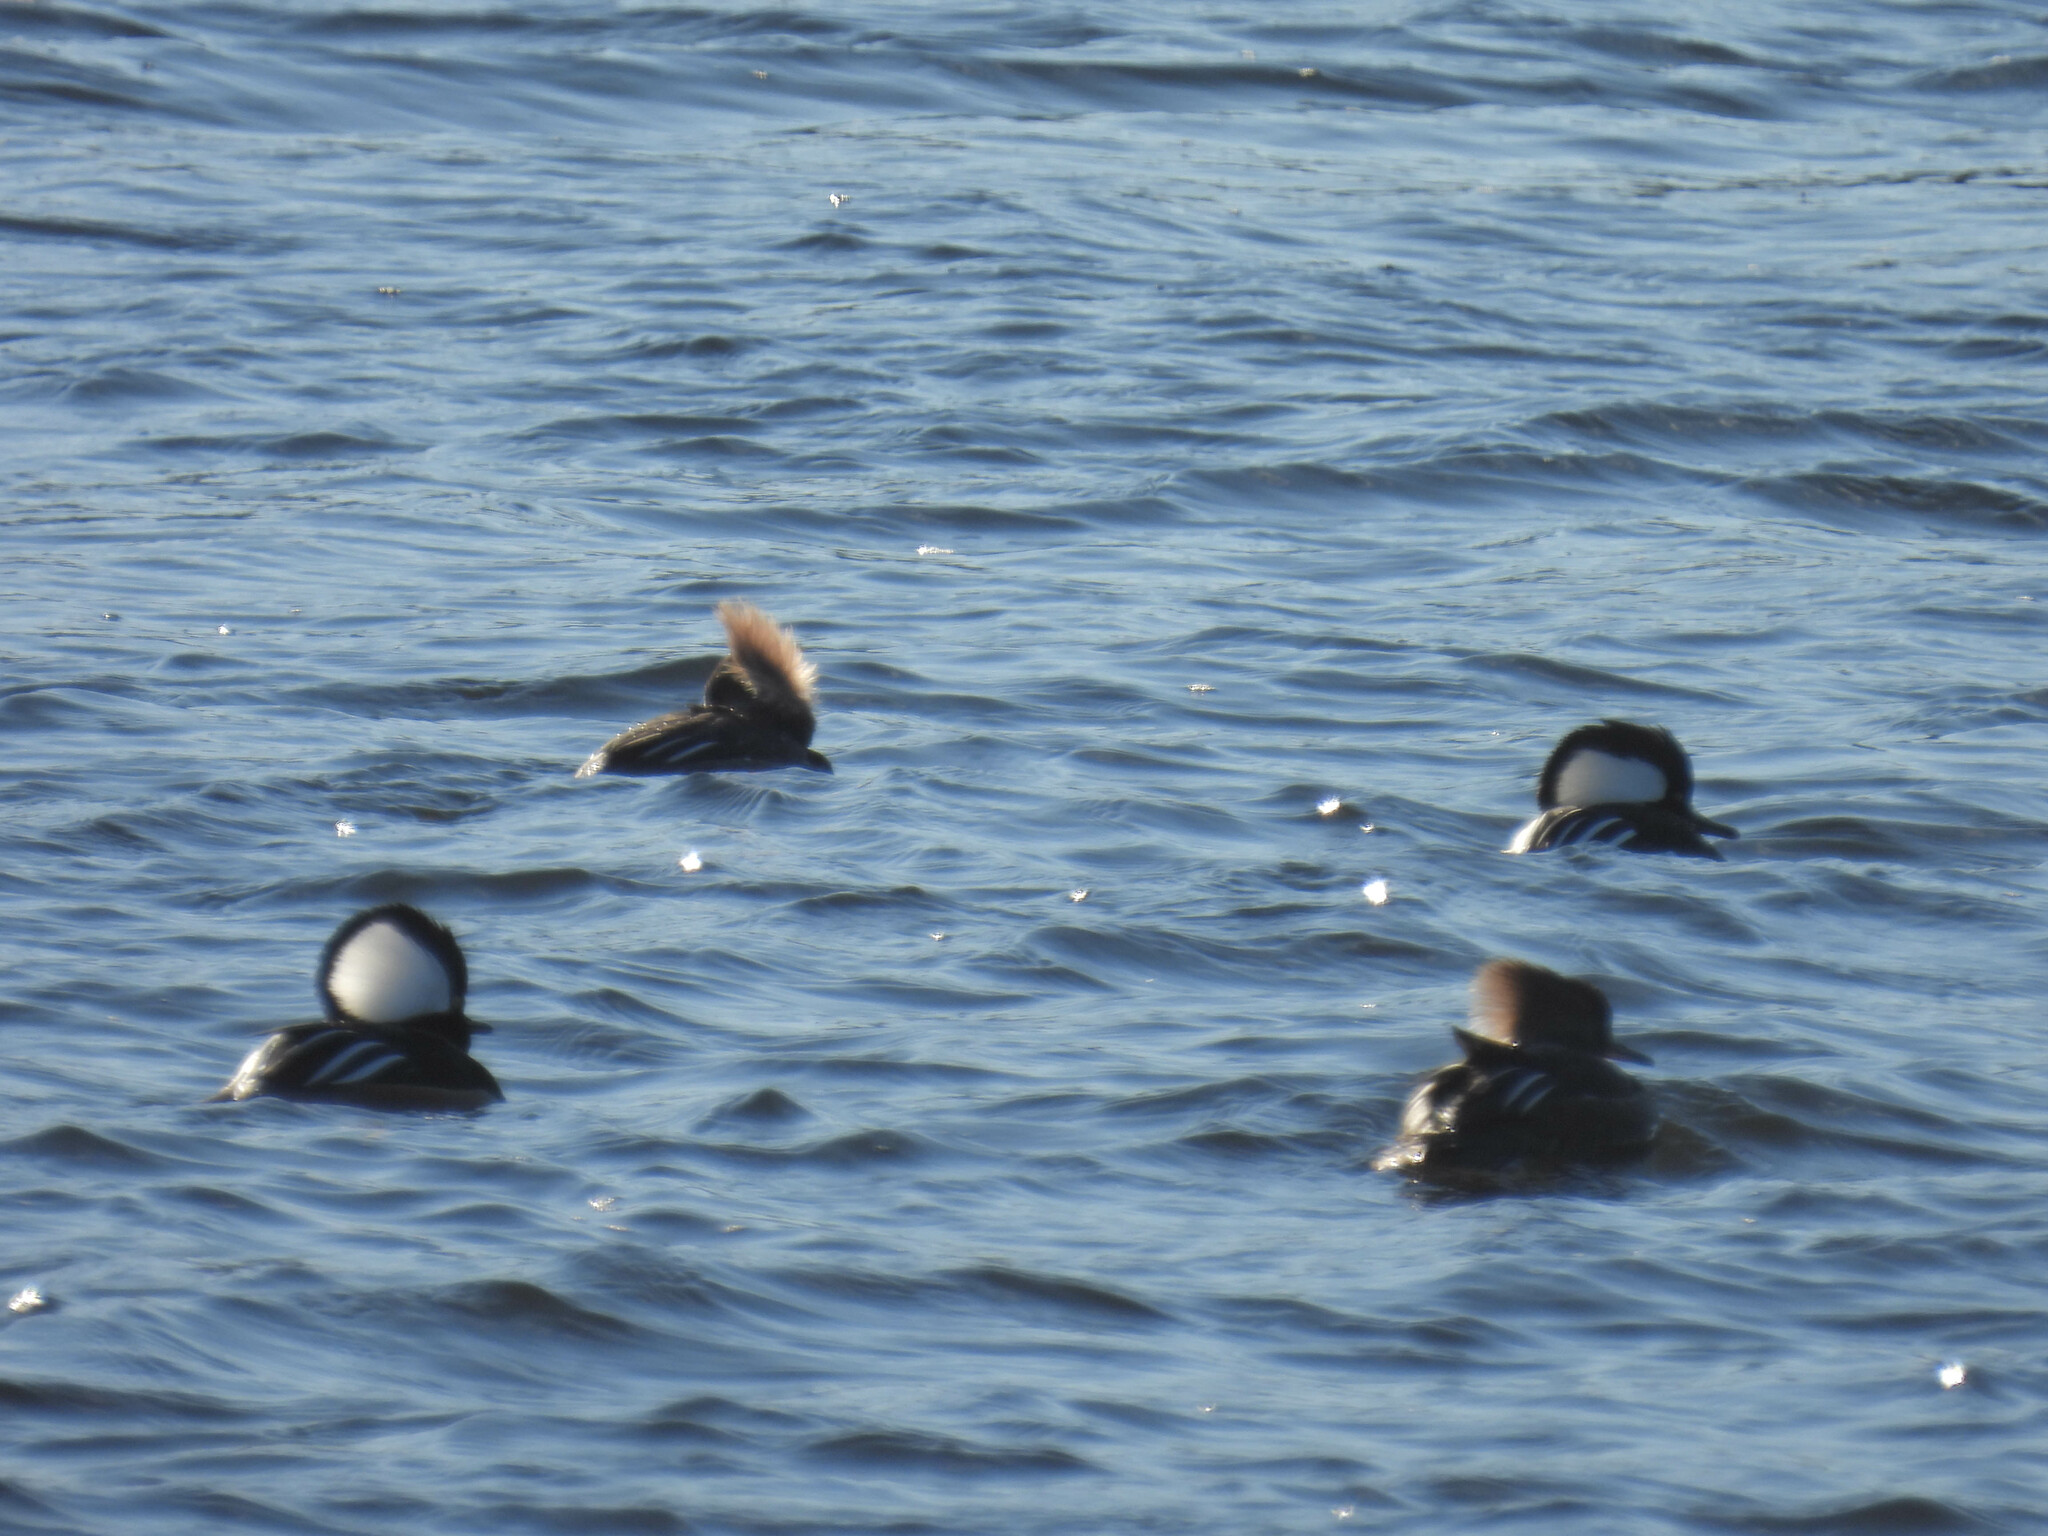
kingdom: Animalia
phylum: Chordata
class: Aves
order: Anseriformes
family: Anatidae
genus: Lophodytes
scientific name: Lophodytes cucullatus
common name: Hooded merganser
